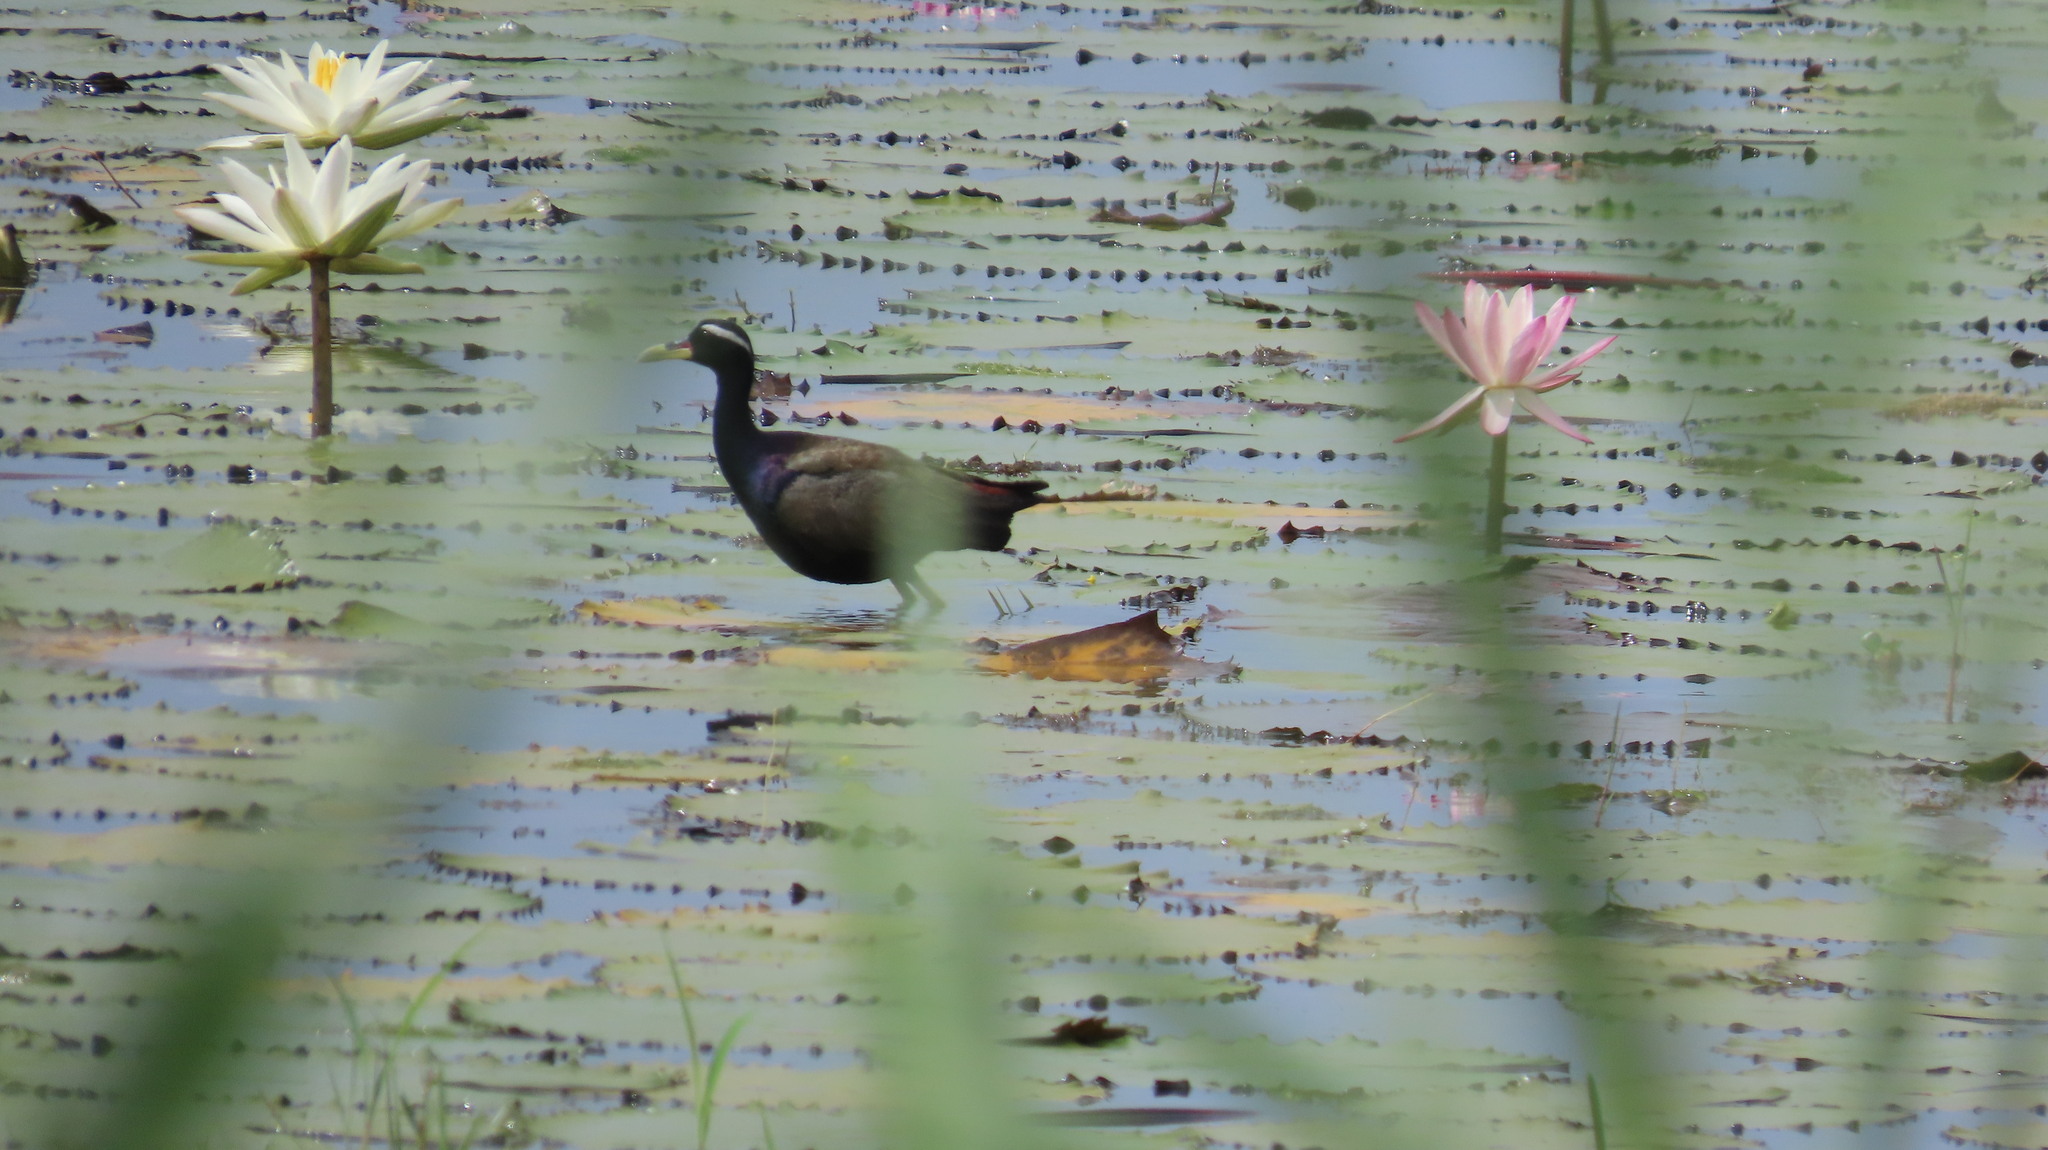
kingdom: Animalia
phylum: Chordata
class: Aves
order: Charadriiformes
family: Jacanidae
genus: Metopidius
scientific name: Metopidius indicus
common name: Bronze-winged jacana
